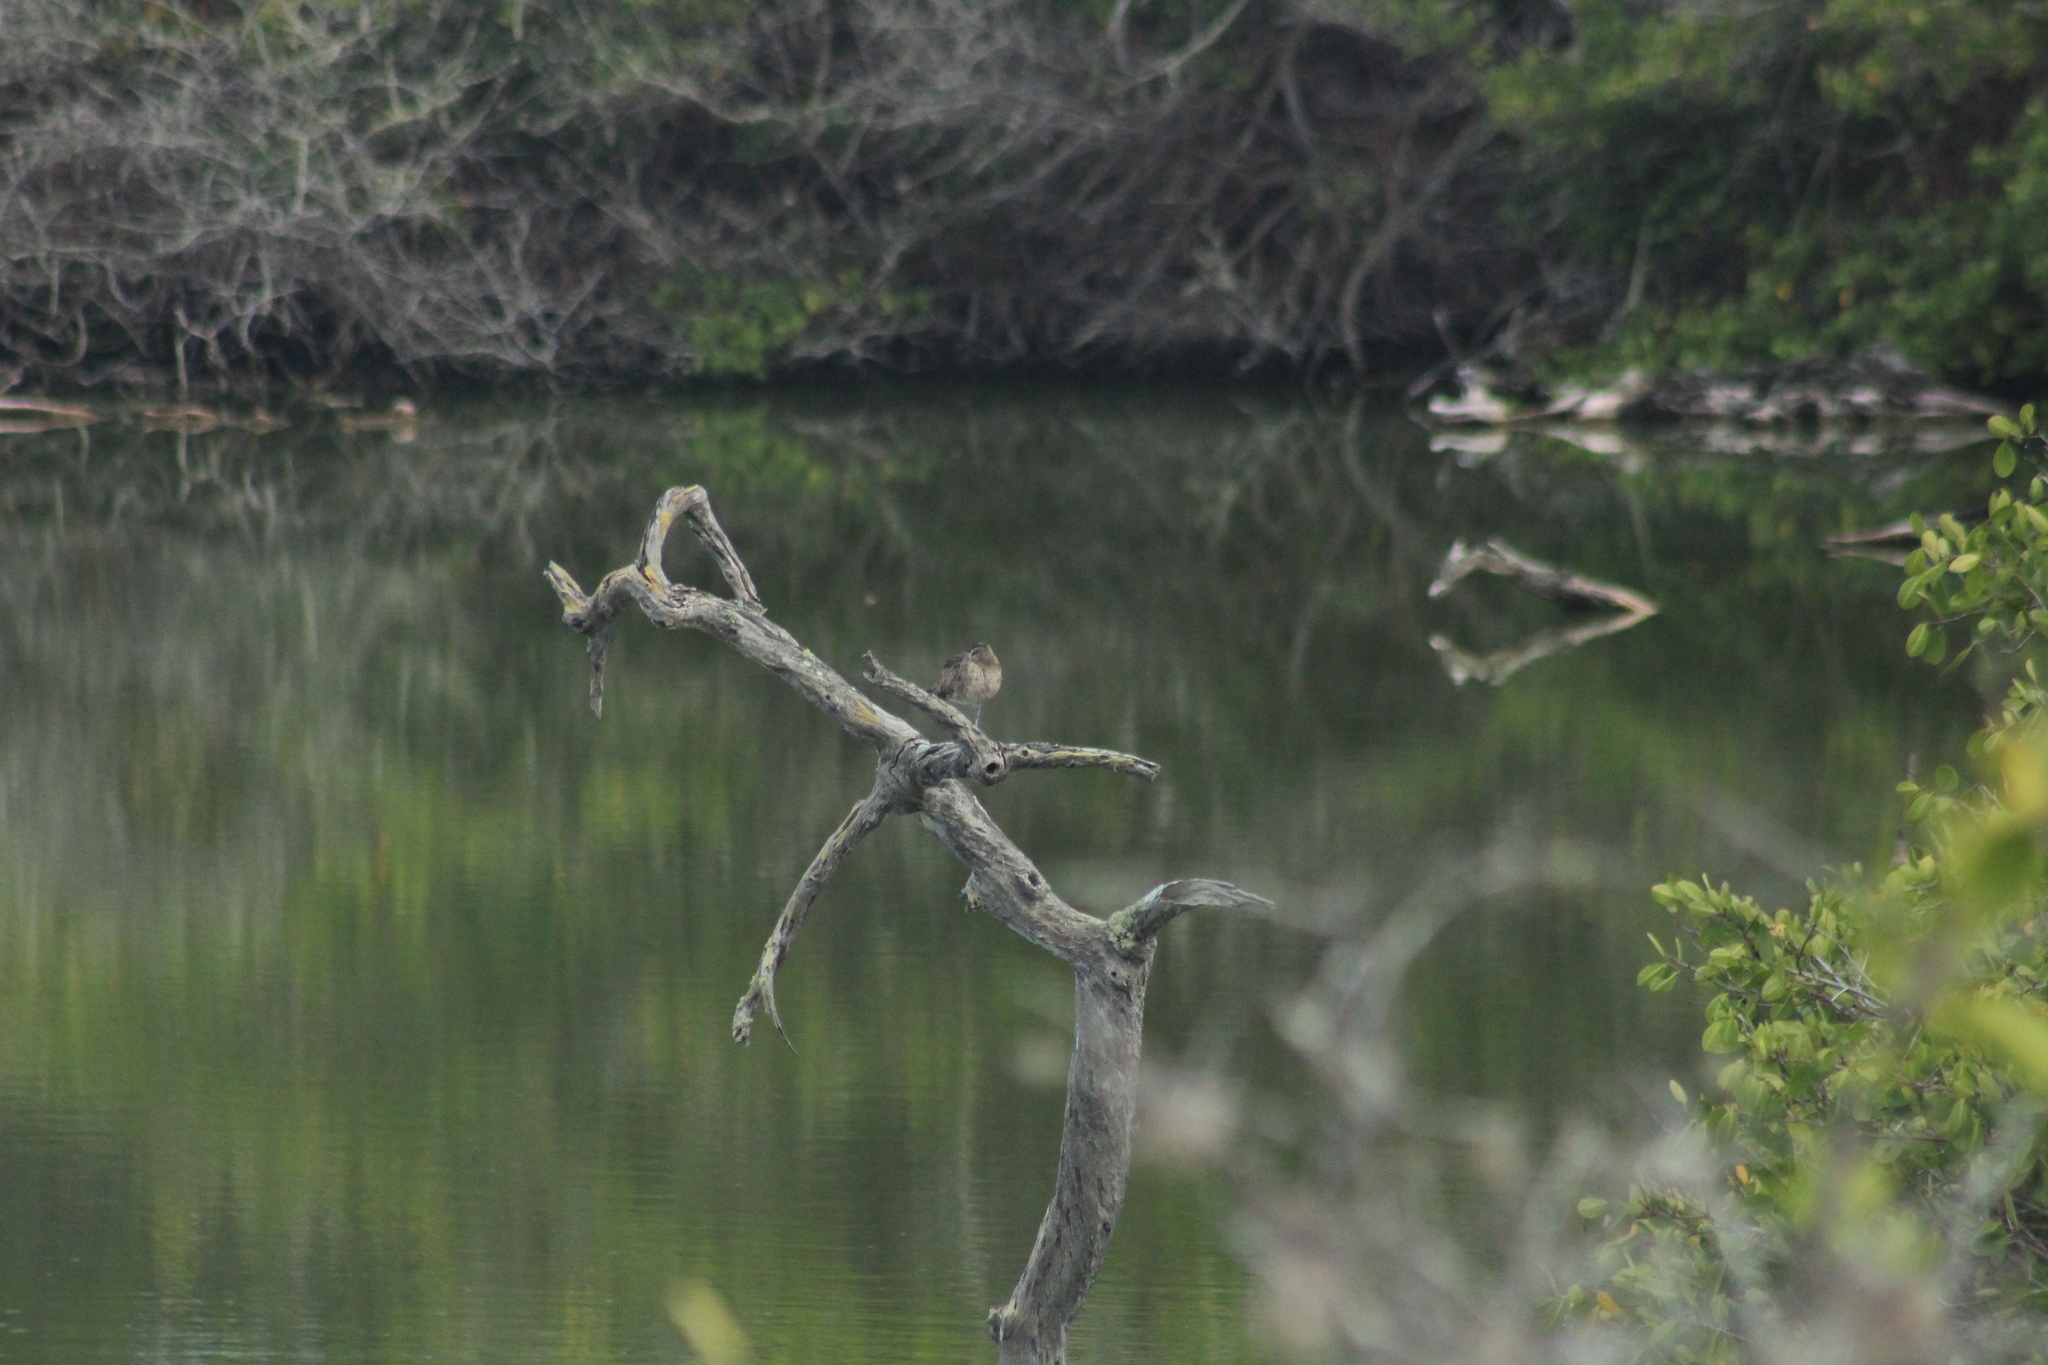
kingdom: Animalia
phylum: Chordata
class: Aves
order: Charadriiformes
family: Scolopacidae
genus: Numenius
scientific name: Numenius phaeopus
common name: Whimbrel
